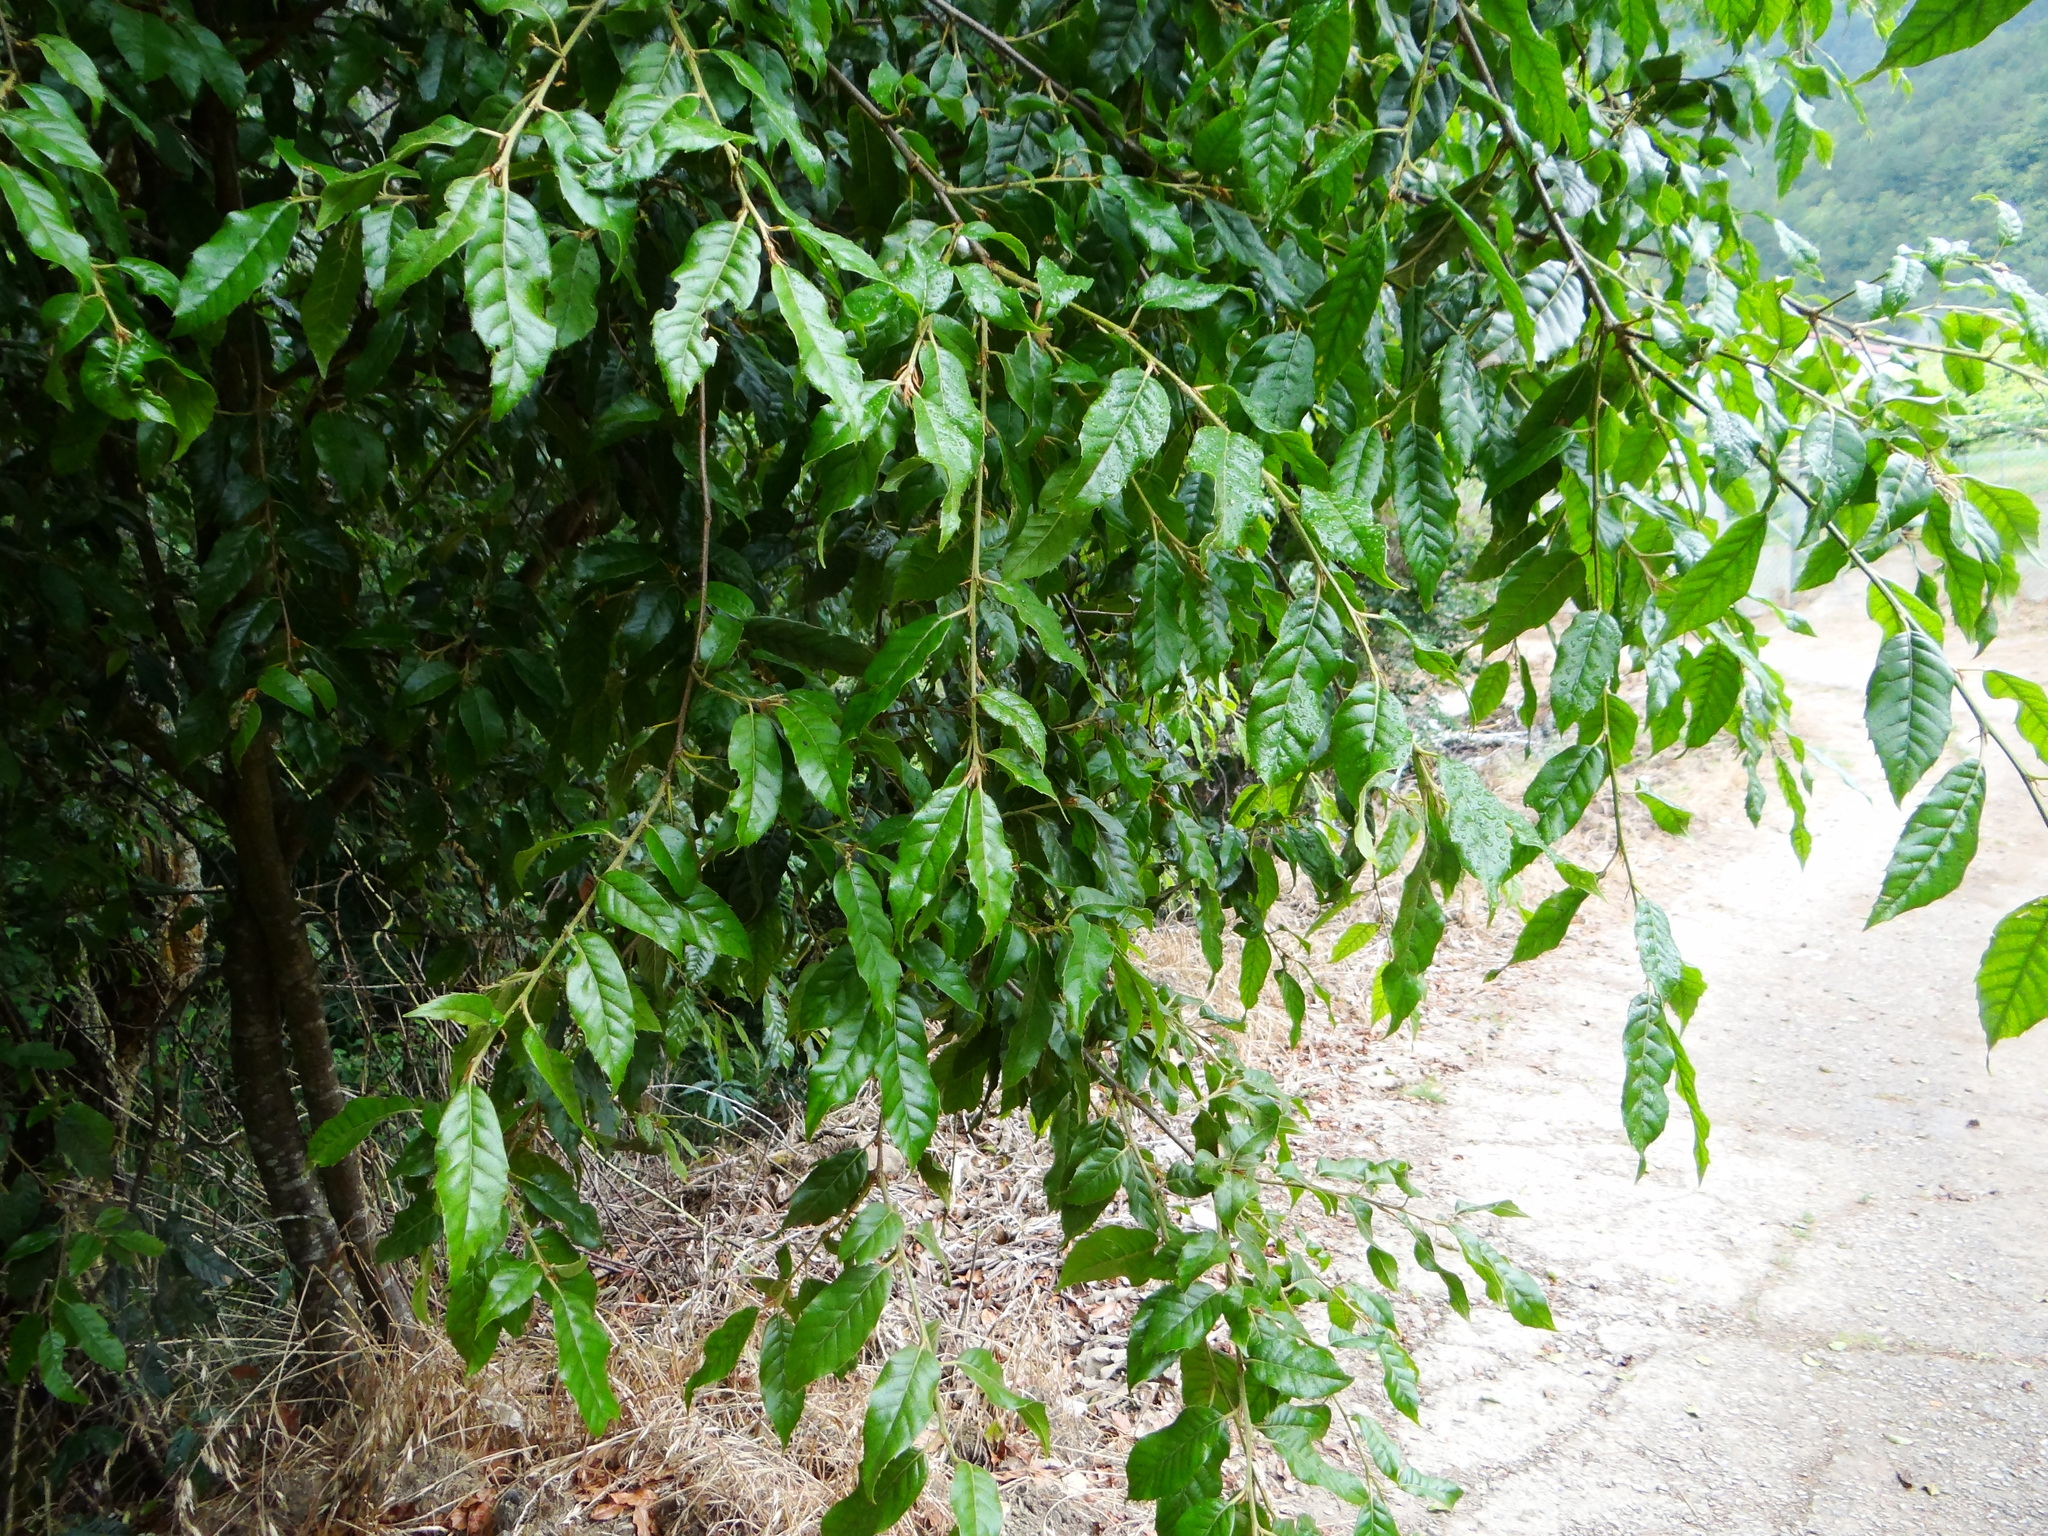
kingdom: Plantae
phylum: Tracheophyta
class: Magnoliopsida
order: Fagales
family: Fagaceae
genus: Quercus
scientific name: Quercus tatakaensis
